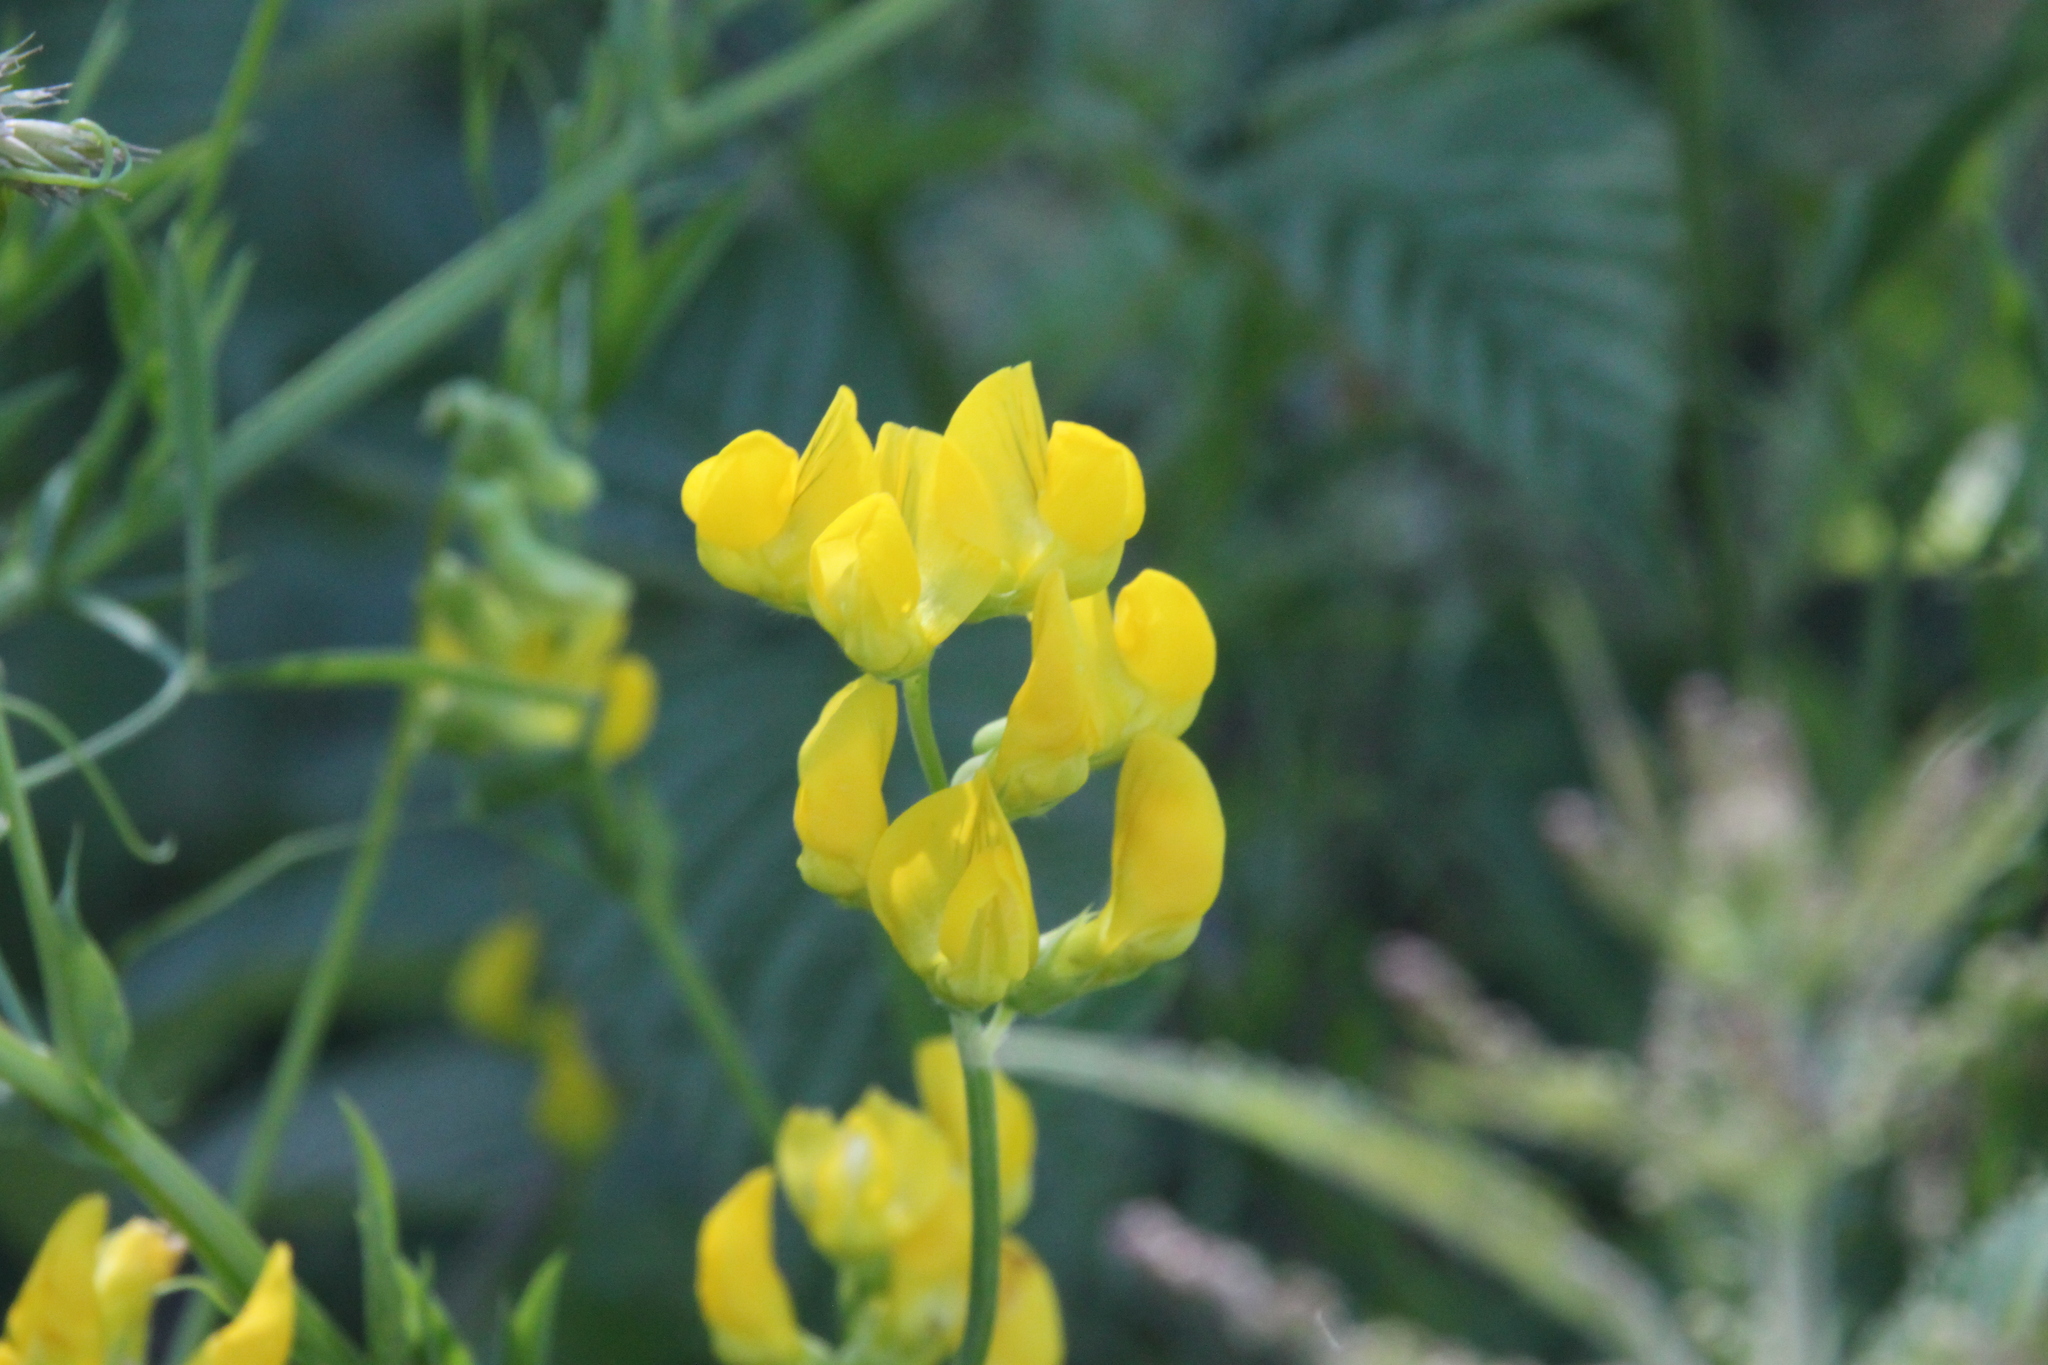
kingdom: Plantae
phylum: Tracheophyta
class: Magnoliopsida
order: Fabales
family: Fabaceae
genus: Lathyrus
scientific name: Lathyrus pratensis
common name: Meadow vetchling
